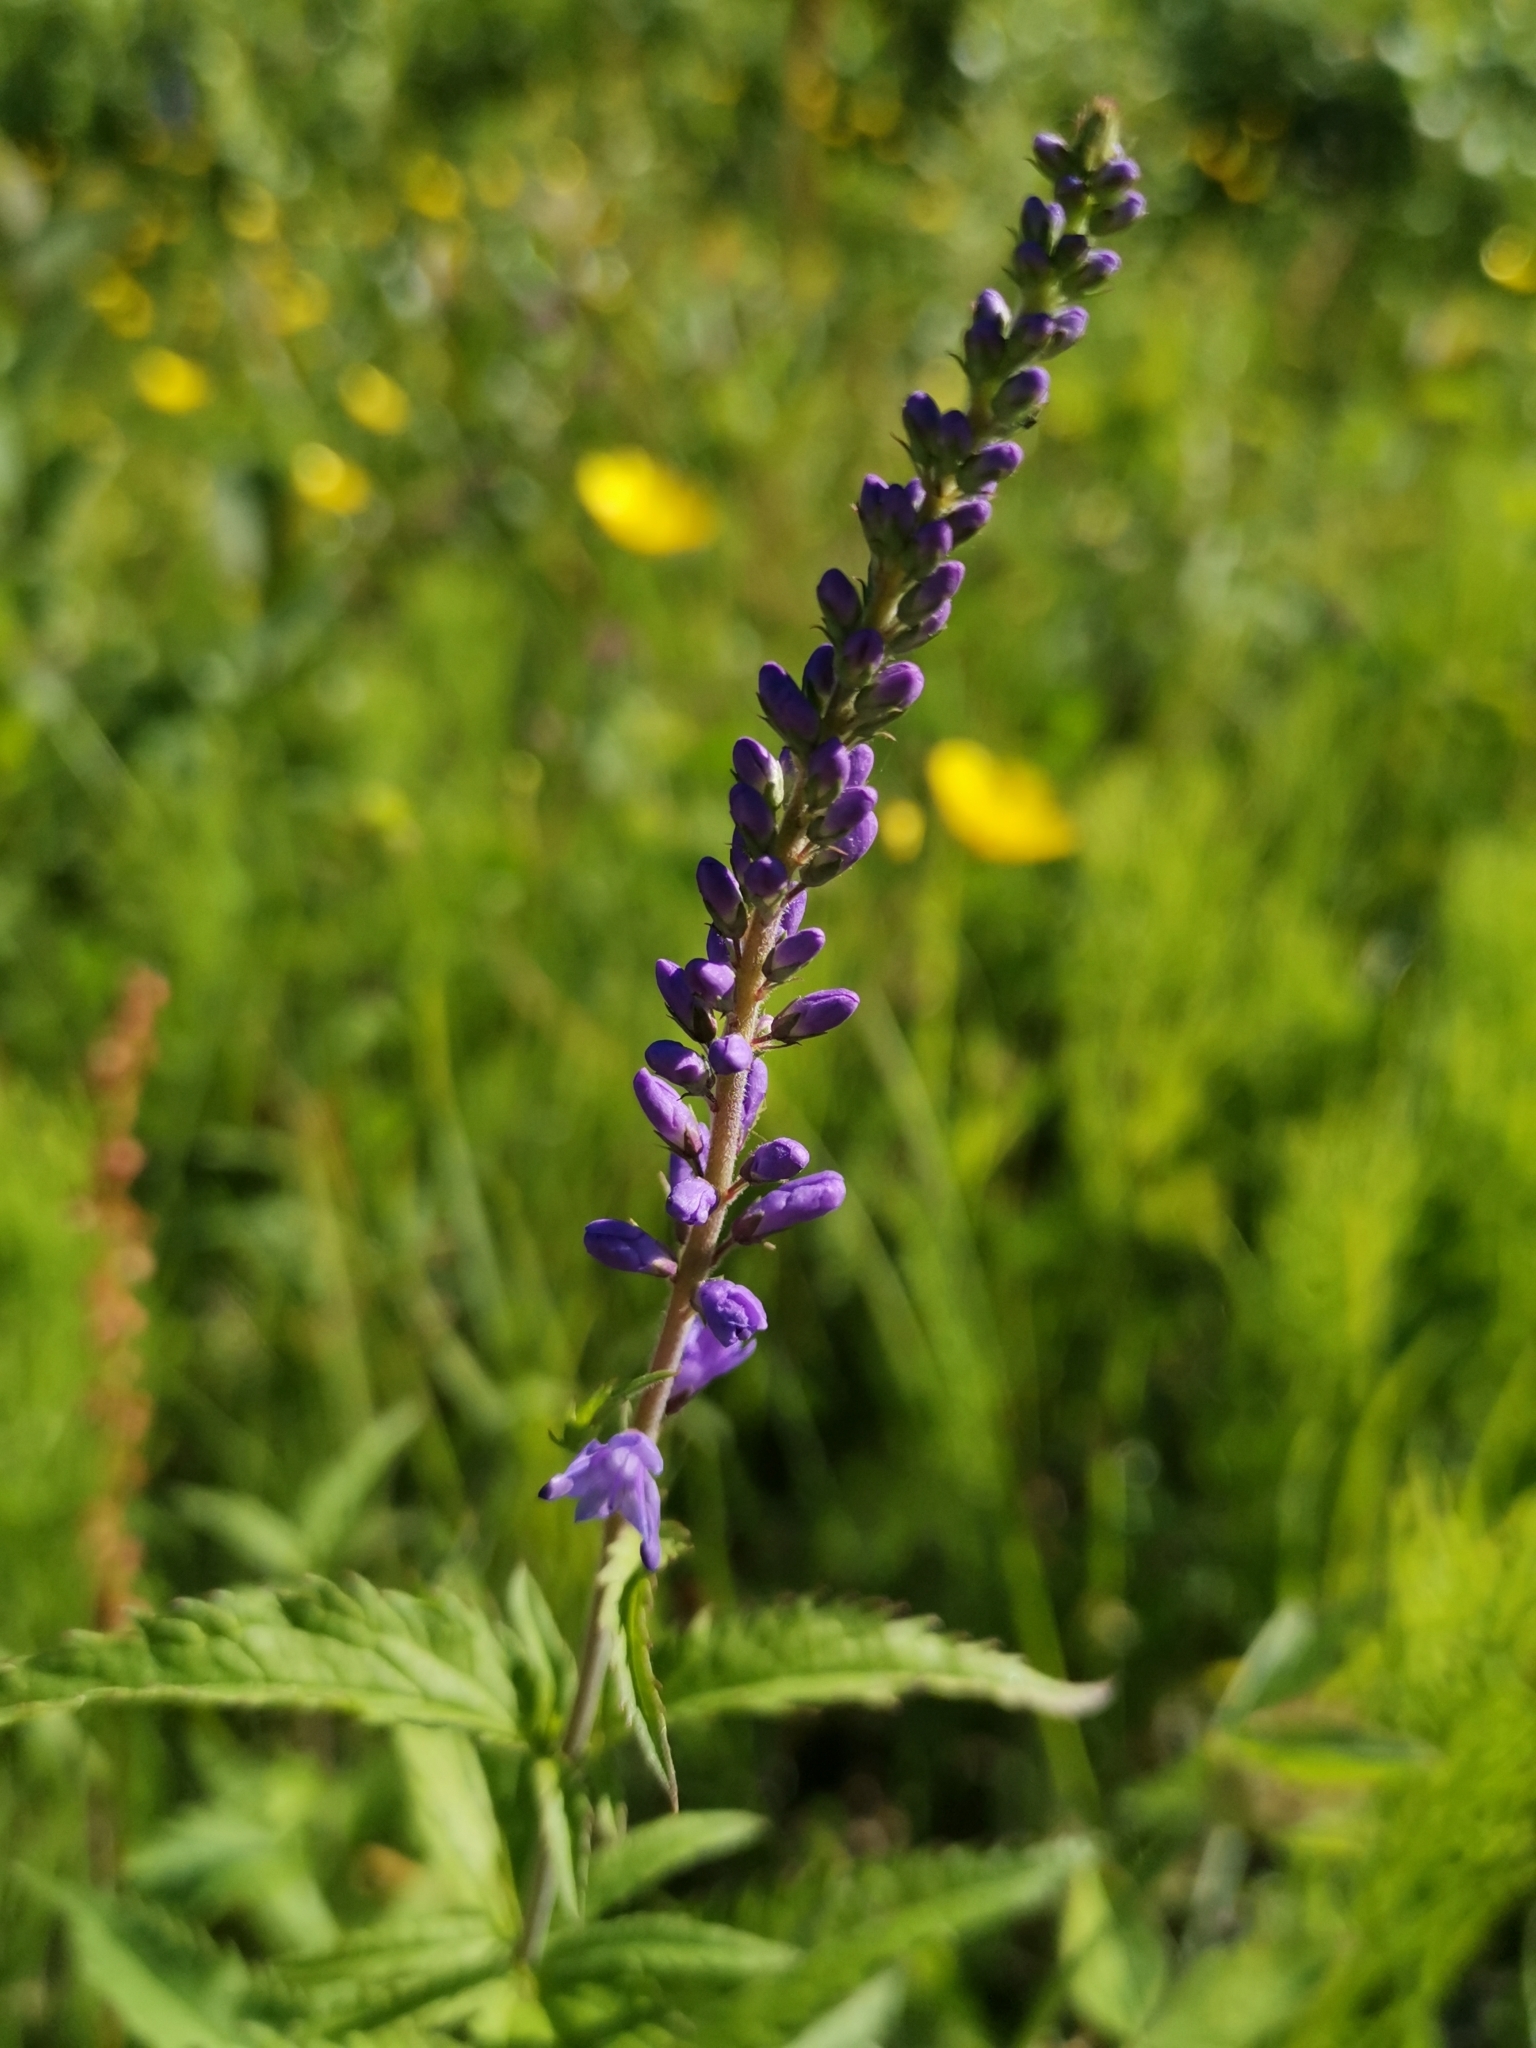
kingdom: Plantae
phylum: Tracheophyta
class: Magnoliopsida
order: Lamiales
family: Plantaginaceae
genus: Veronica
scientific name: Veronica longifolia
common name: Garden speedwell
